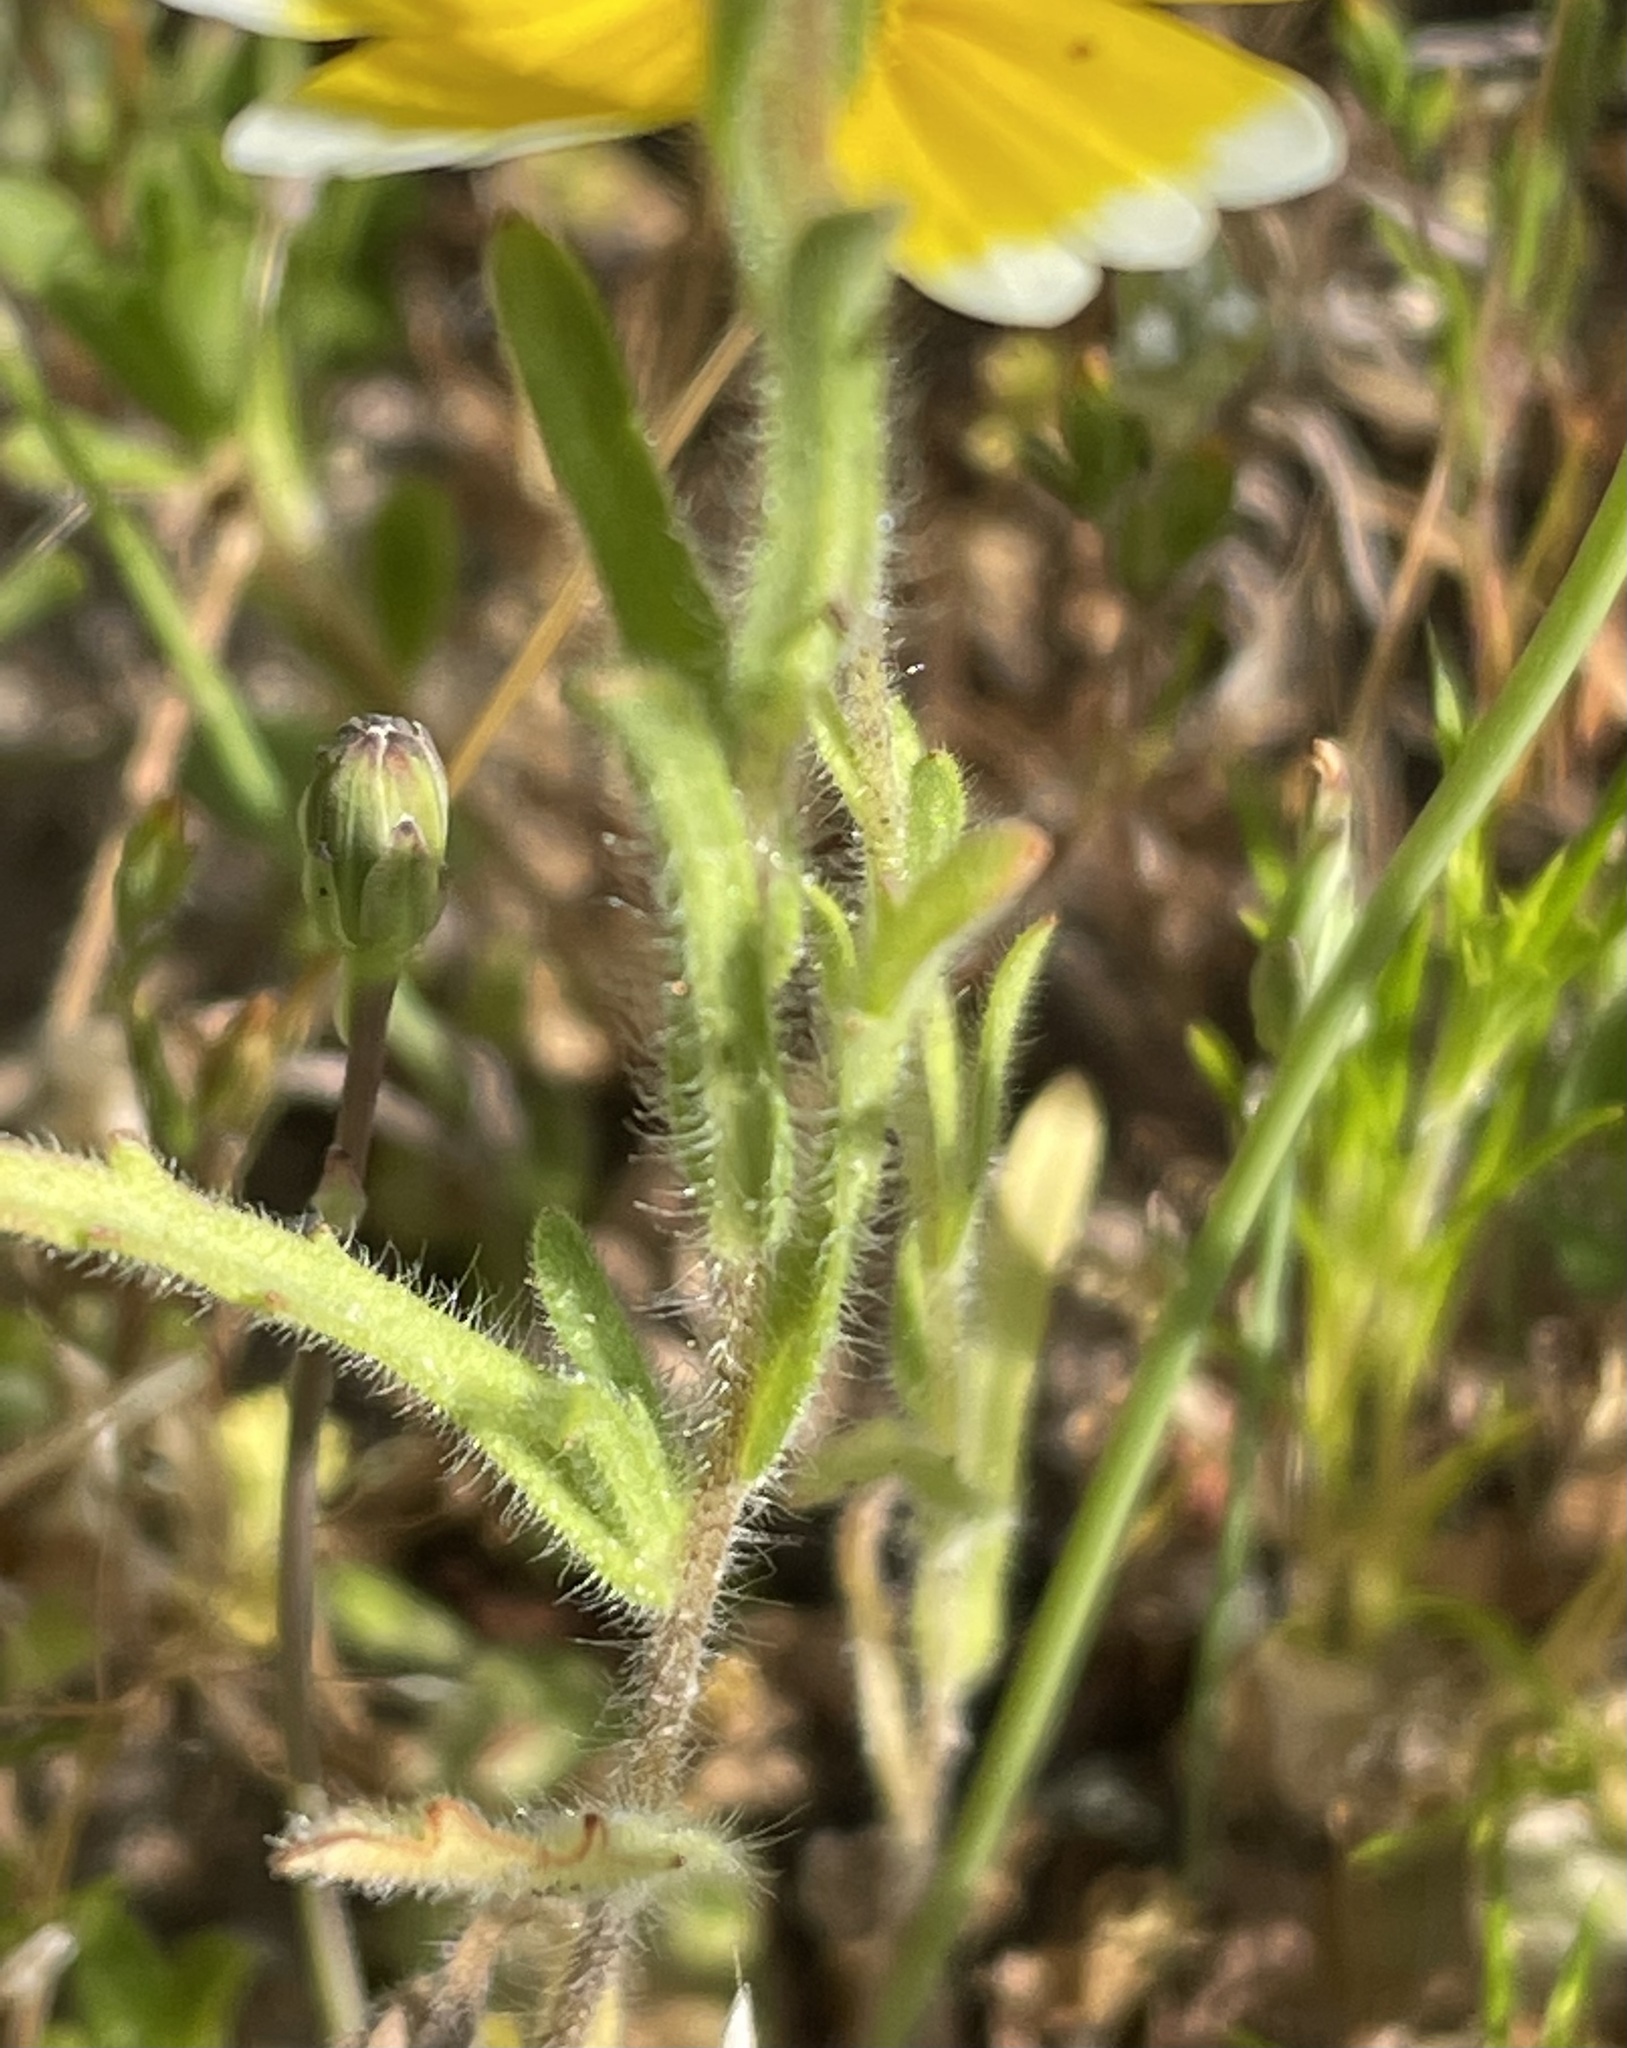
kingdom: Plantae
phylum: Tracheophyta
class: Magnoliopsida
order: Asterales
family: Asteraceae
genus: Layia
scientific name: Layia platyglossa
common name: Tidy-tips
